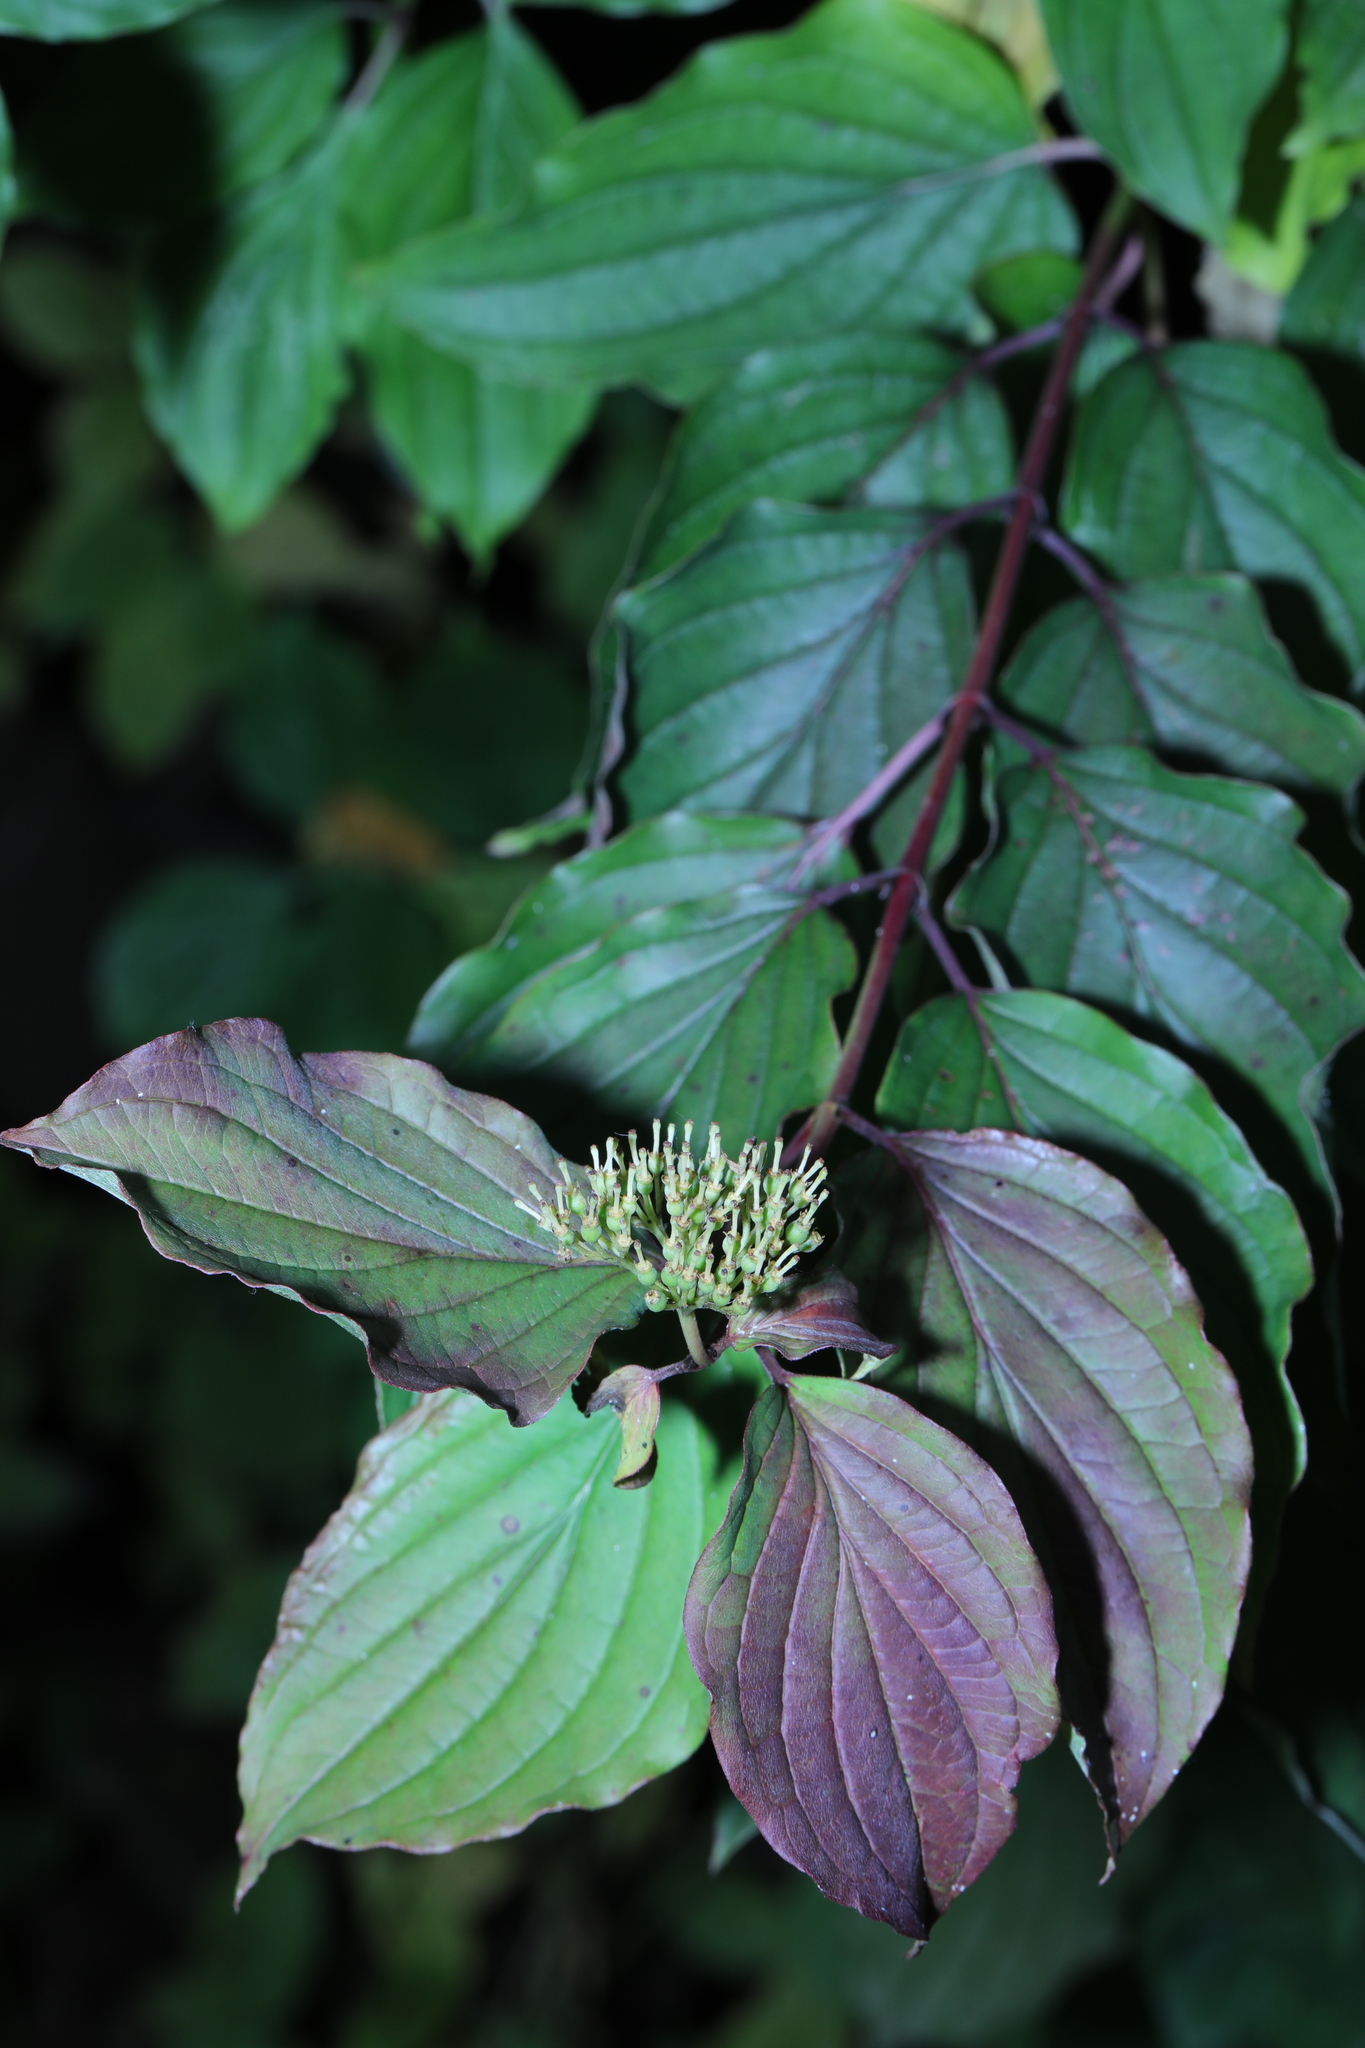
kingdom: Plantae
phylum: Tracheophyta
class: Magnoliopsida
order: Cornales
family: Cornaceae
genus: Cornus
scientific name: Cornus sanguinea
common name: Dogwood
